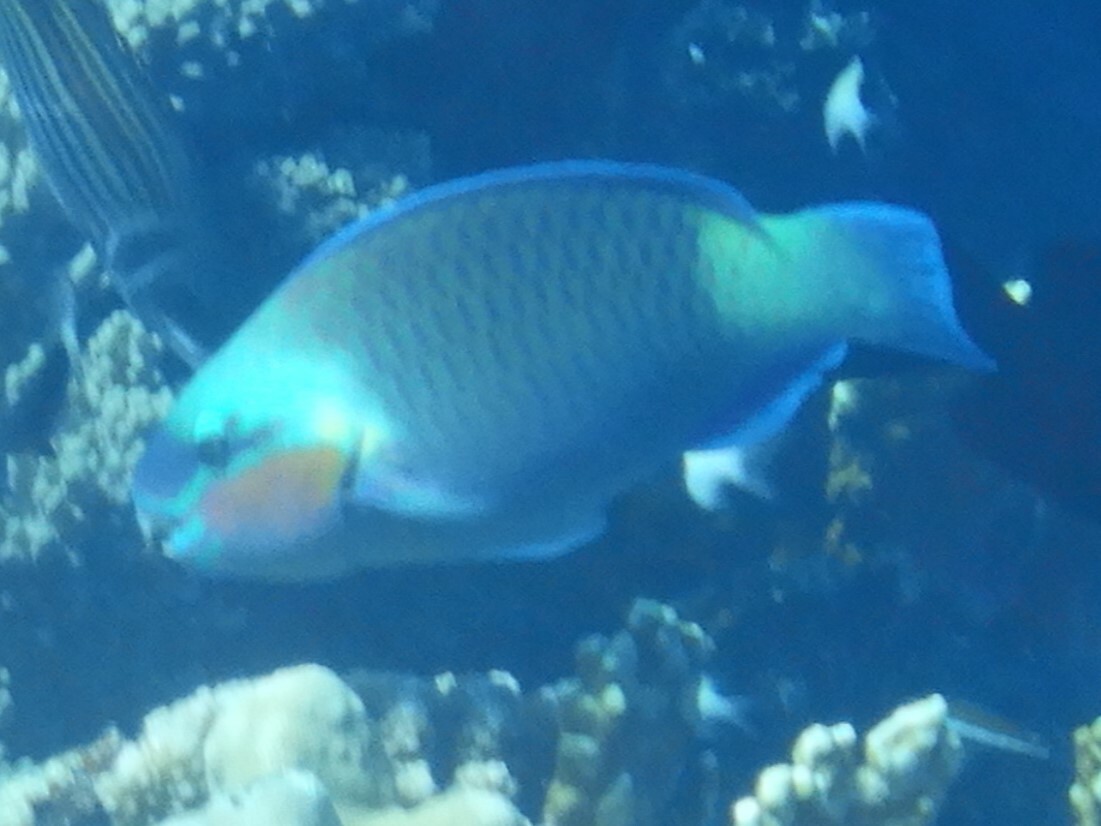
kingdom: Animalia
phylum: Chordata
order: Perciformes
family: Scaridae
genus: Chlorurus
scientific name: Chlorurus sordidus
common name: Bullethead parrotfish
